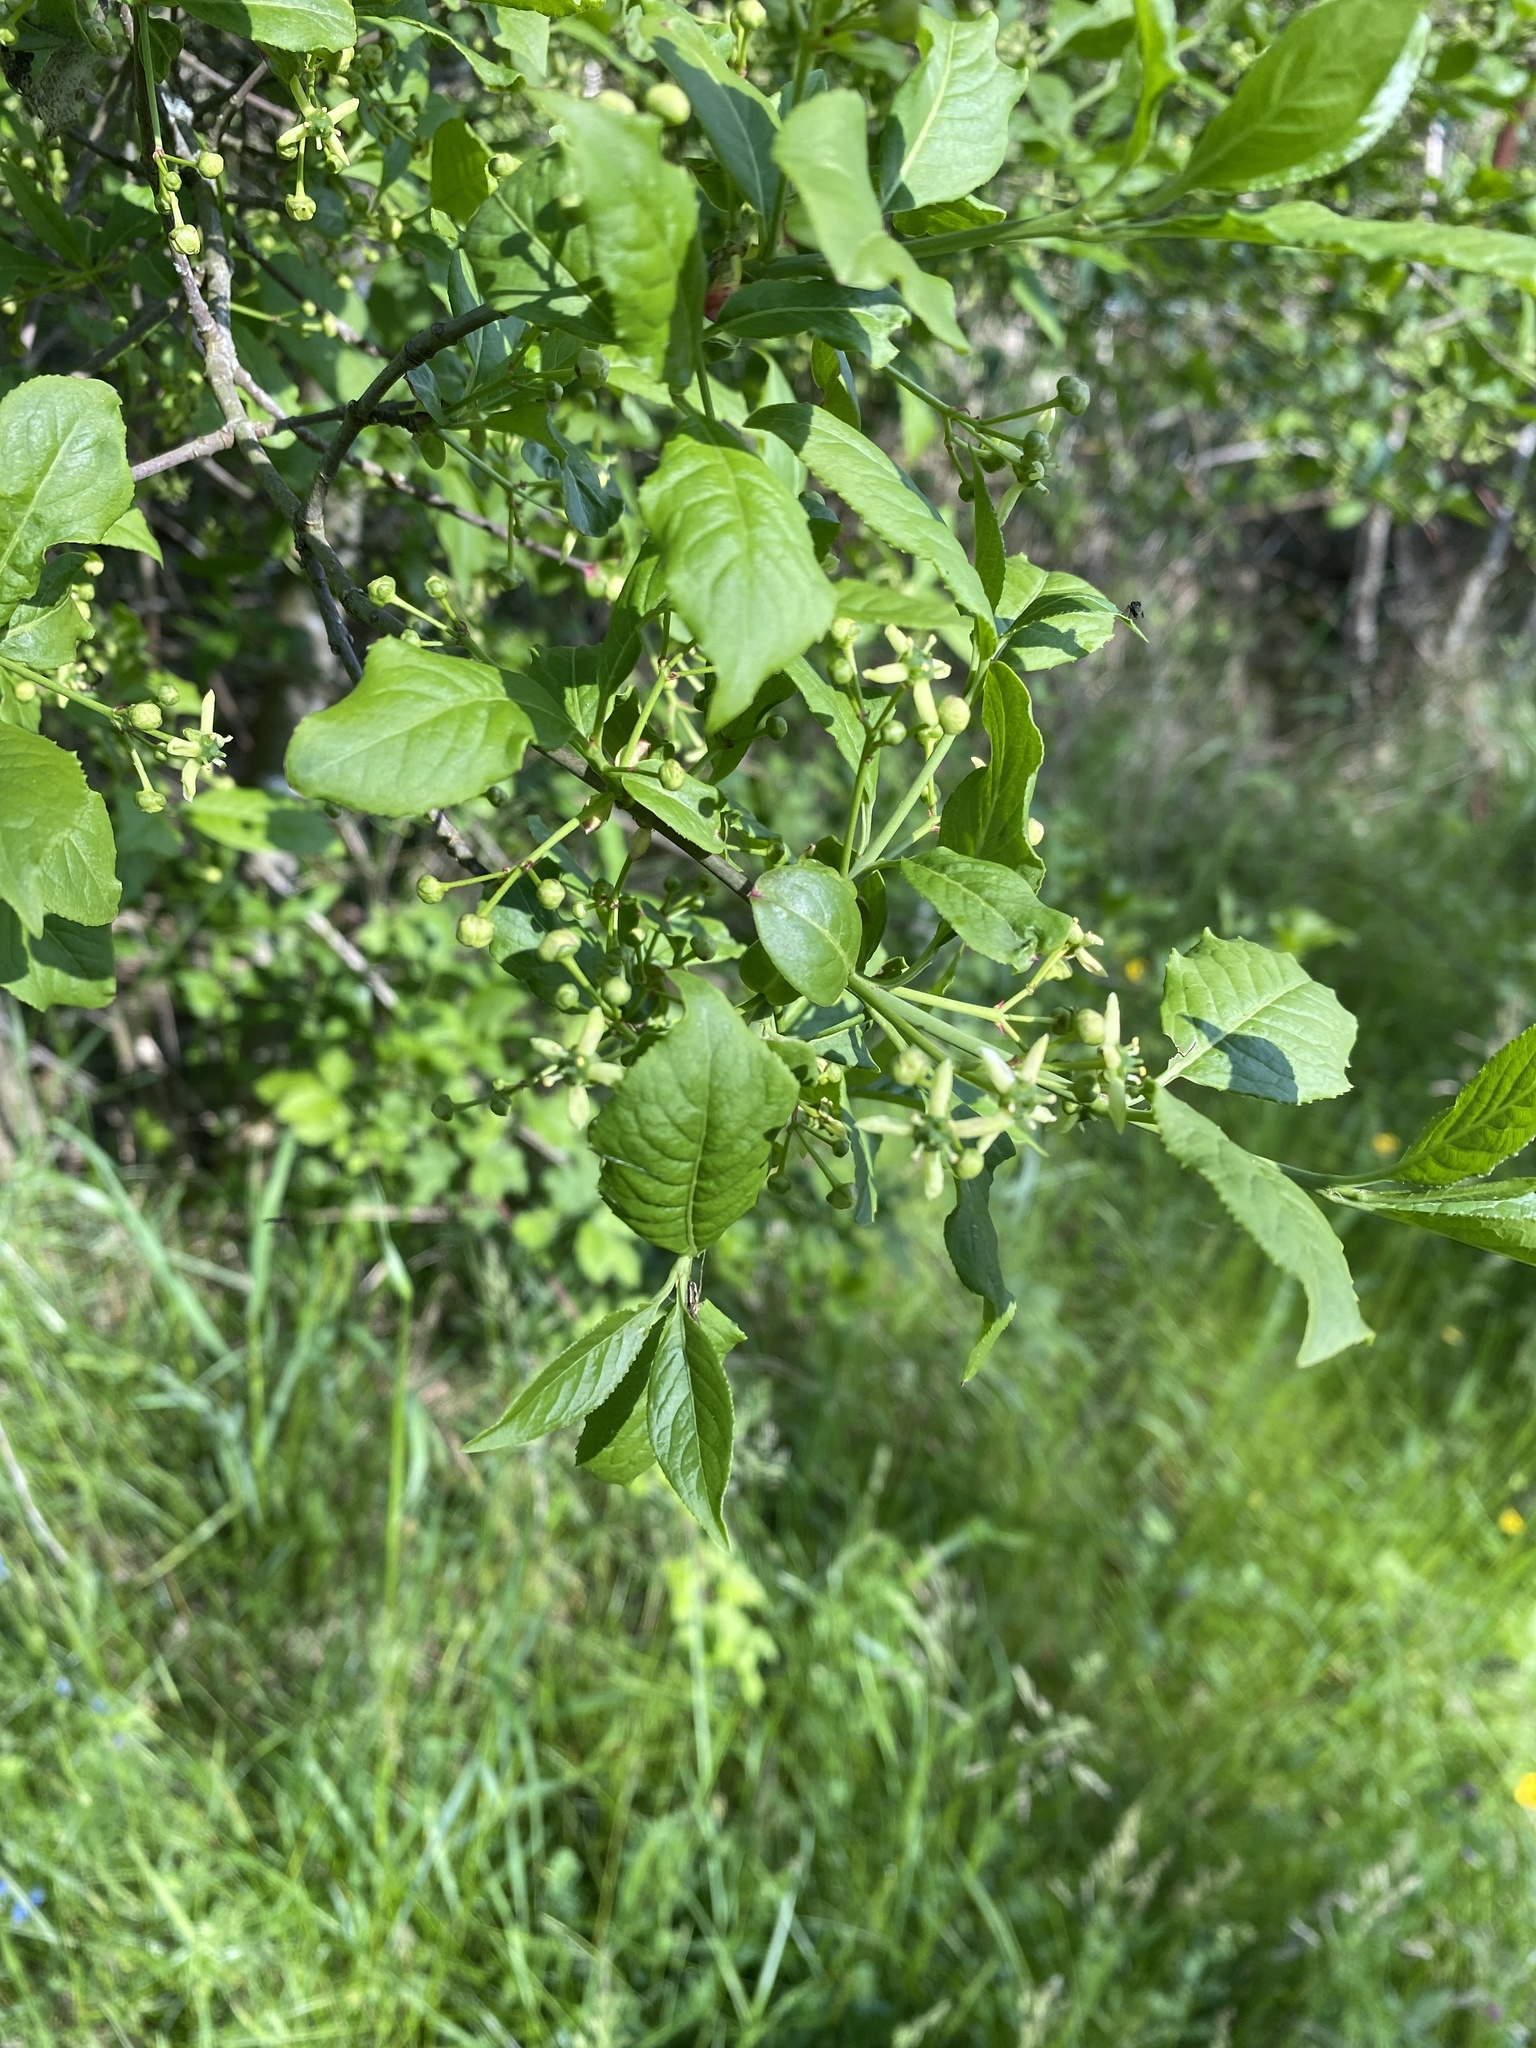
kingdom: Plantae
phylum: Tracheophyta
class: Magnoliopsida
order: Celastrales
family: Celastraceae
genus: Euonymus
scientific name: Euonymus europaeus
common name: Spindle
